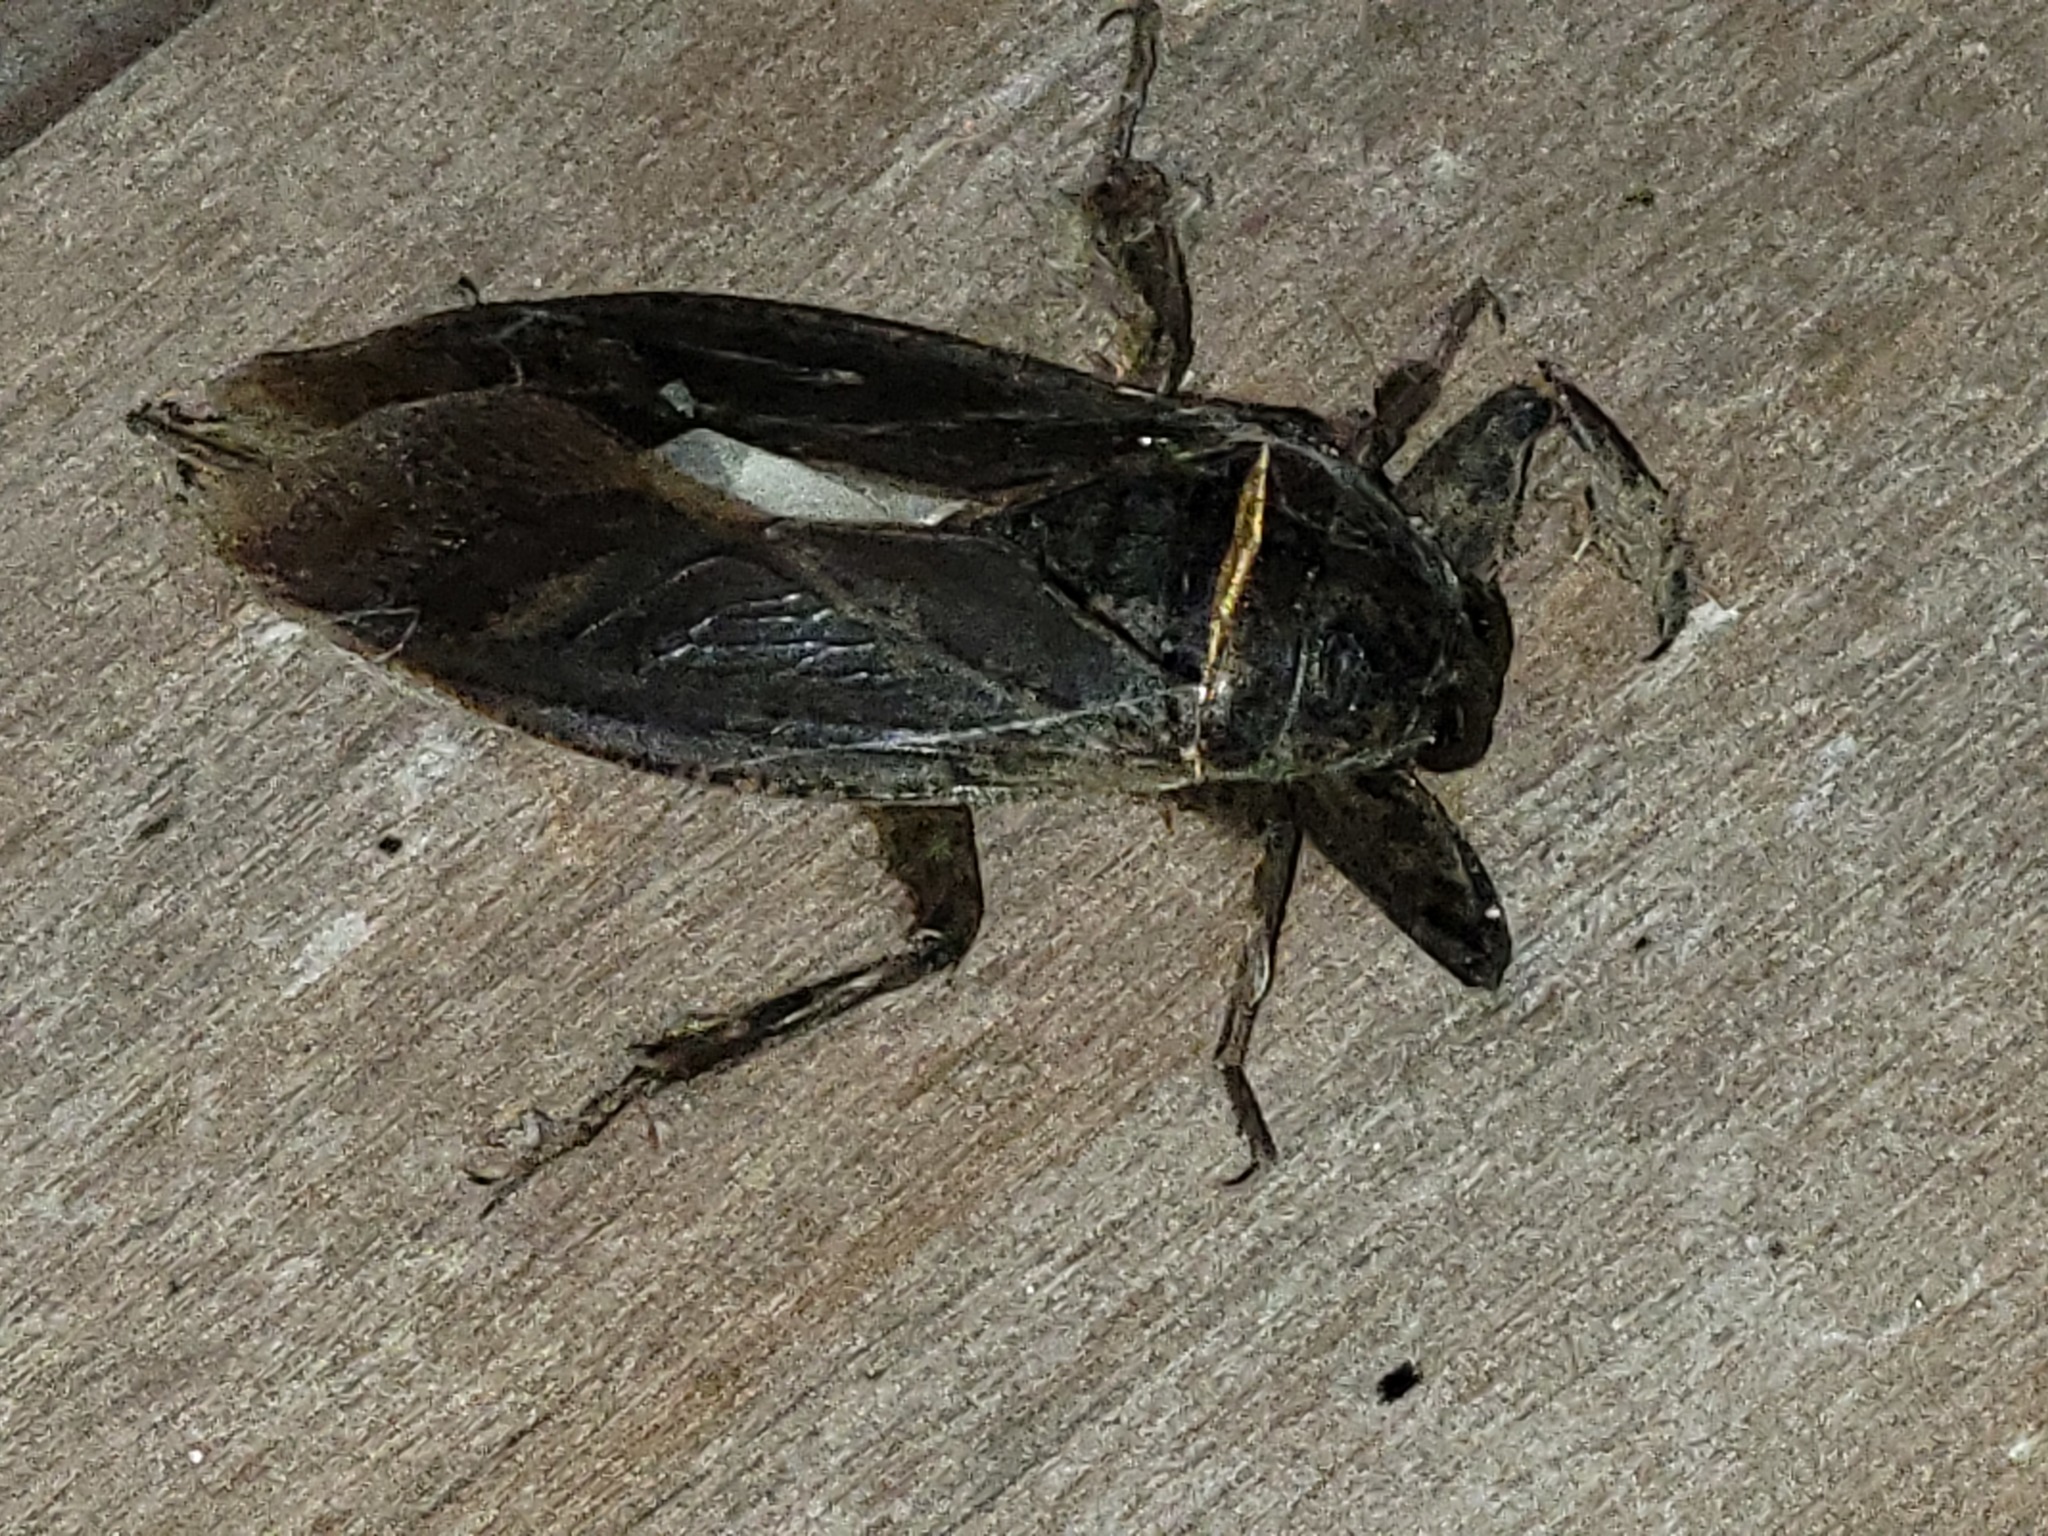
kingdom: Animalia
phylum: Arthropoda
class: Insecta
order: Hemiptera
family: Belostomatidae
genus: Lethocerus
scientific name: Lethocerus medius
